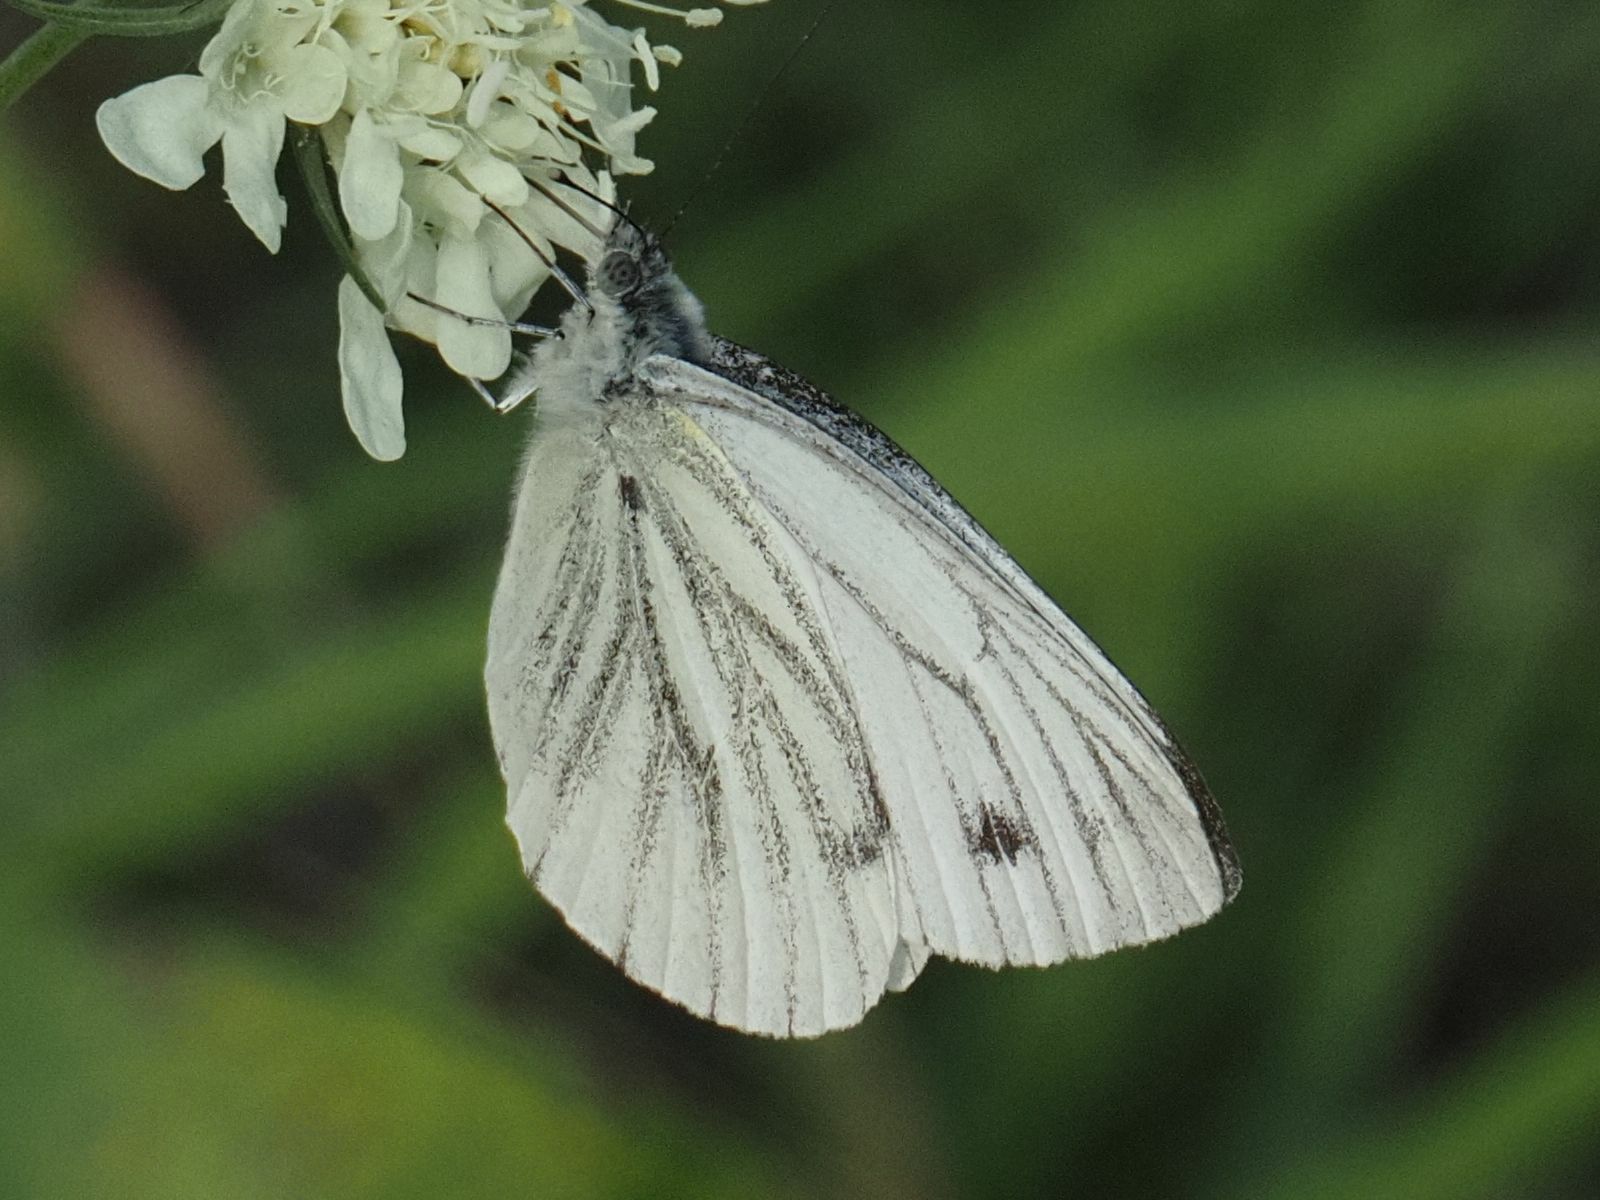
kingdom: Animalia
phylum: Arthropoda
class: Insecta
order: Lepidoptera
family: Pieridae
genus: Pieris
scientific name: Pieris napi
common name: Green-veined white
